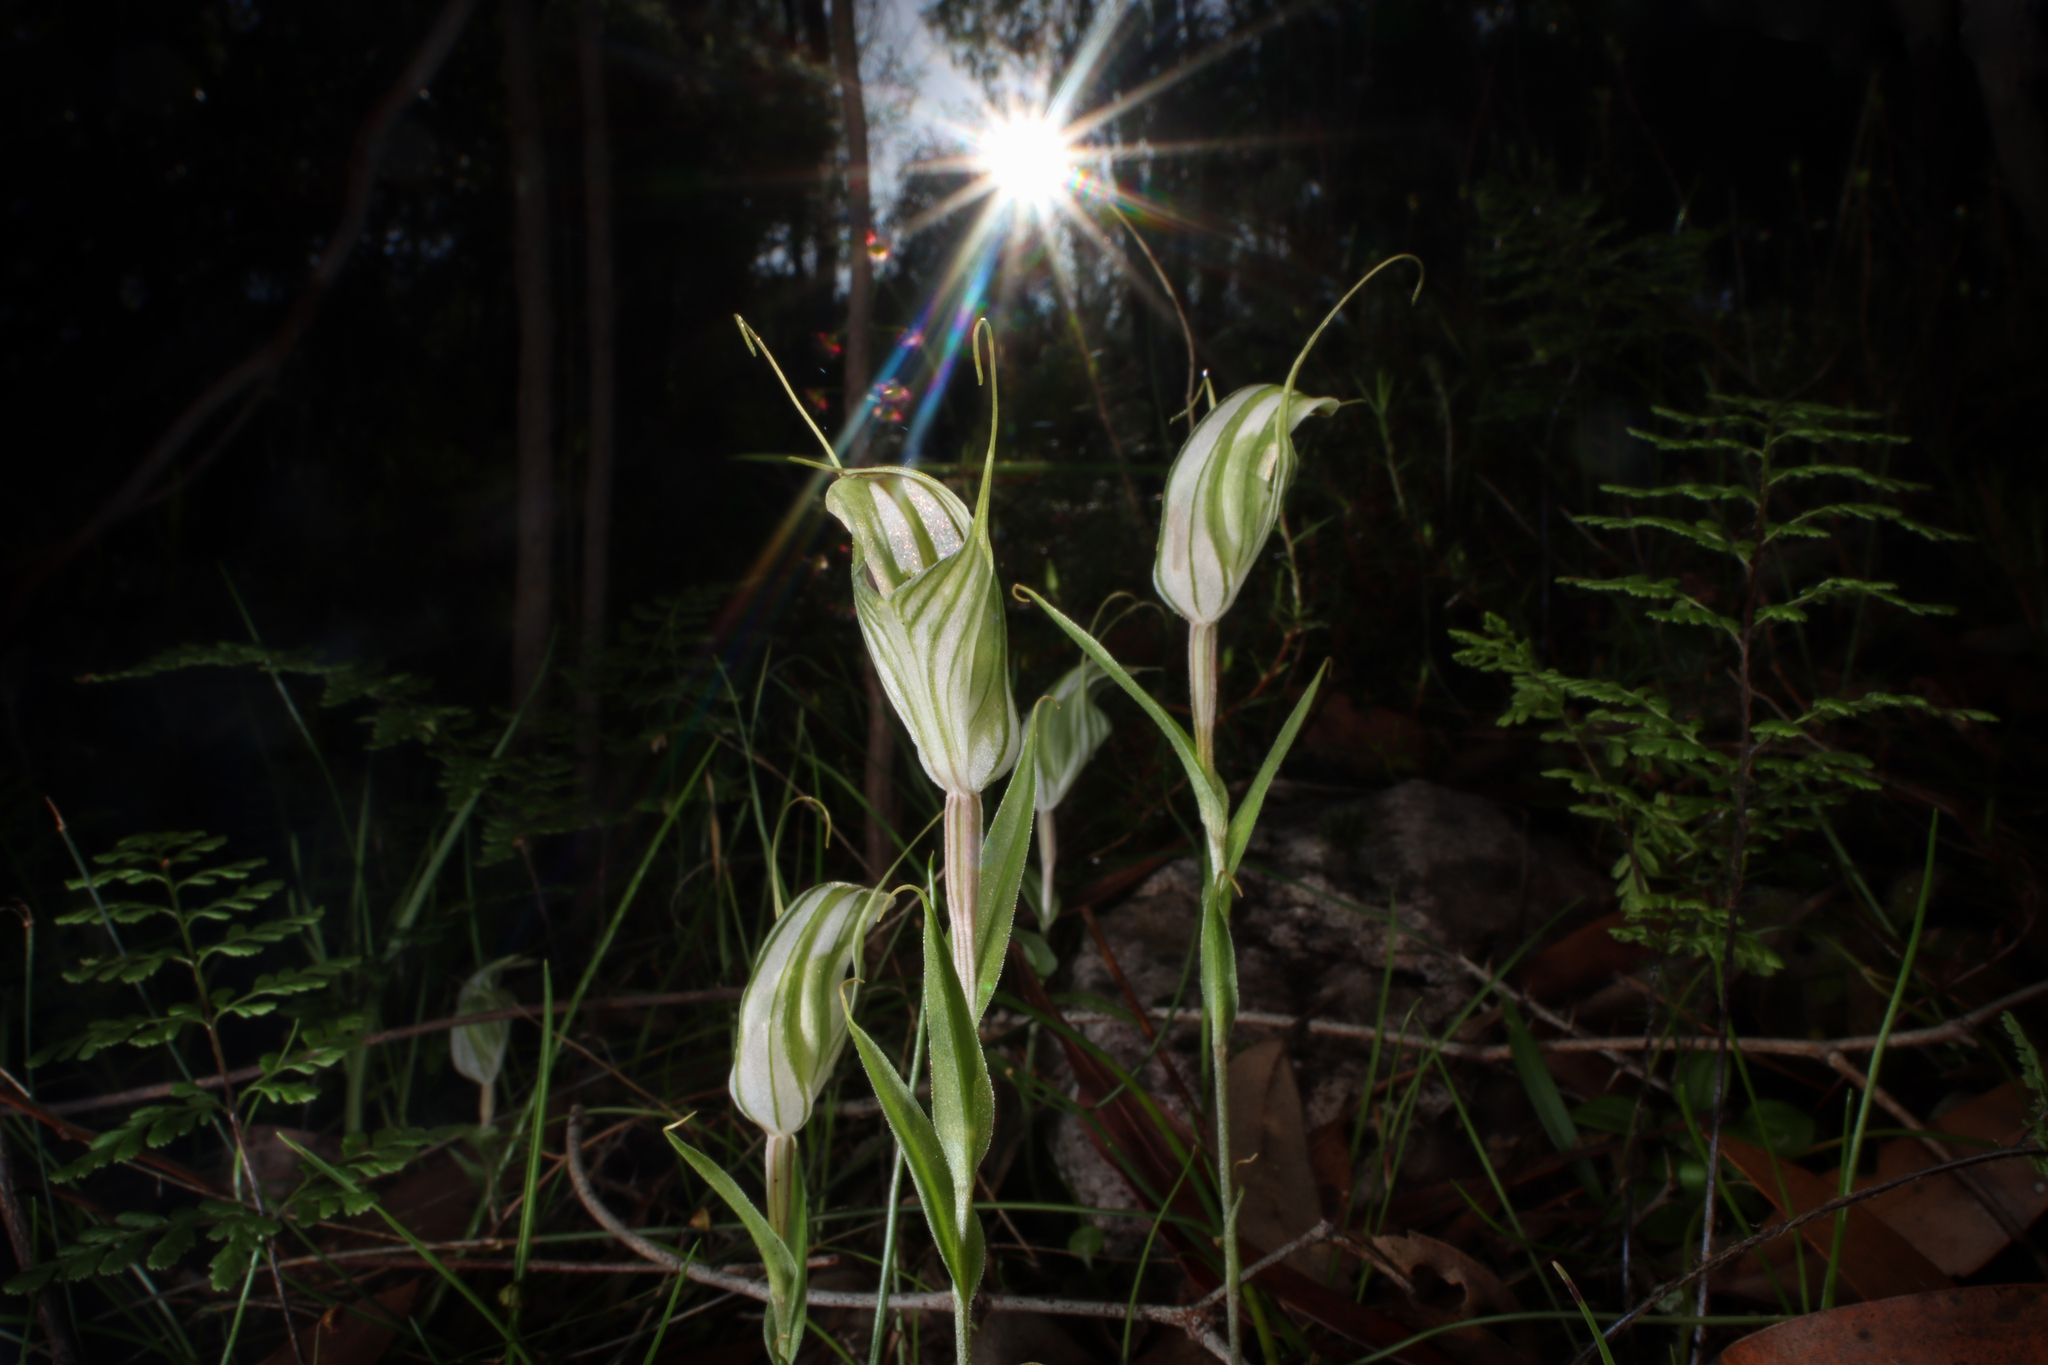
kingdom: Plantae
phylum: Tracheophyta
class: Liliopsida
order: Asparagales
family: Orchidaceae
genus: Pterostylis
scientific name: Pterostylis robusta
